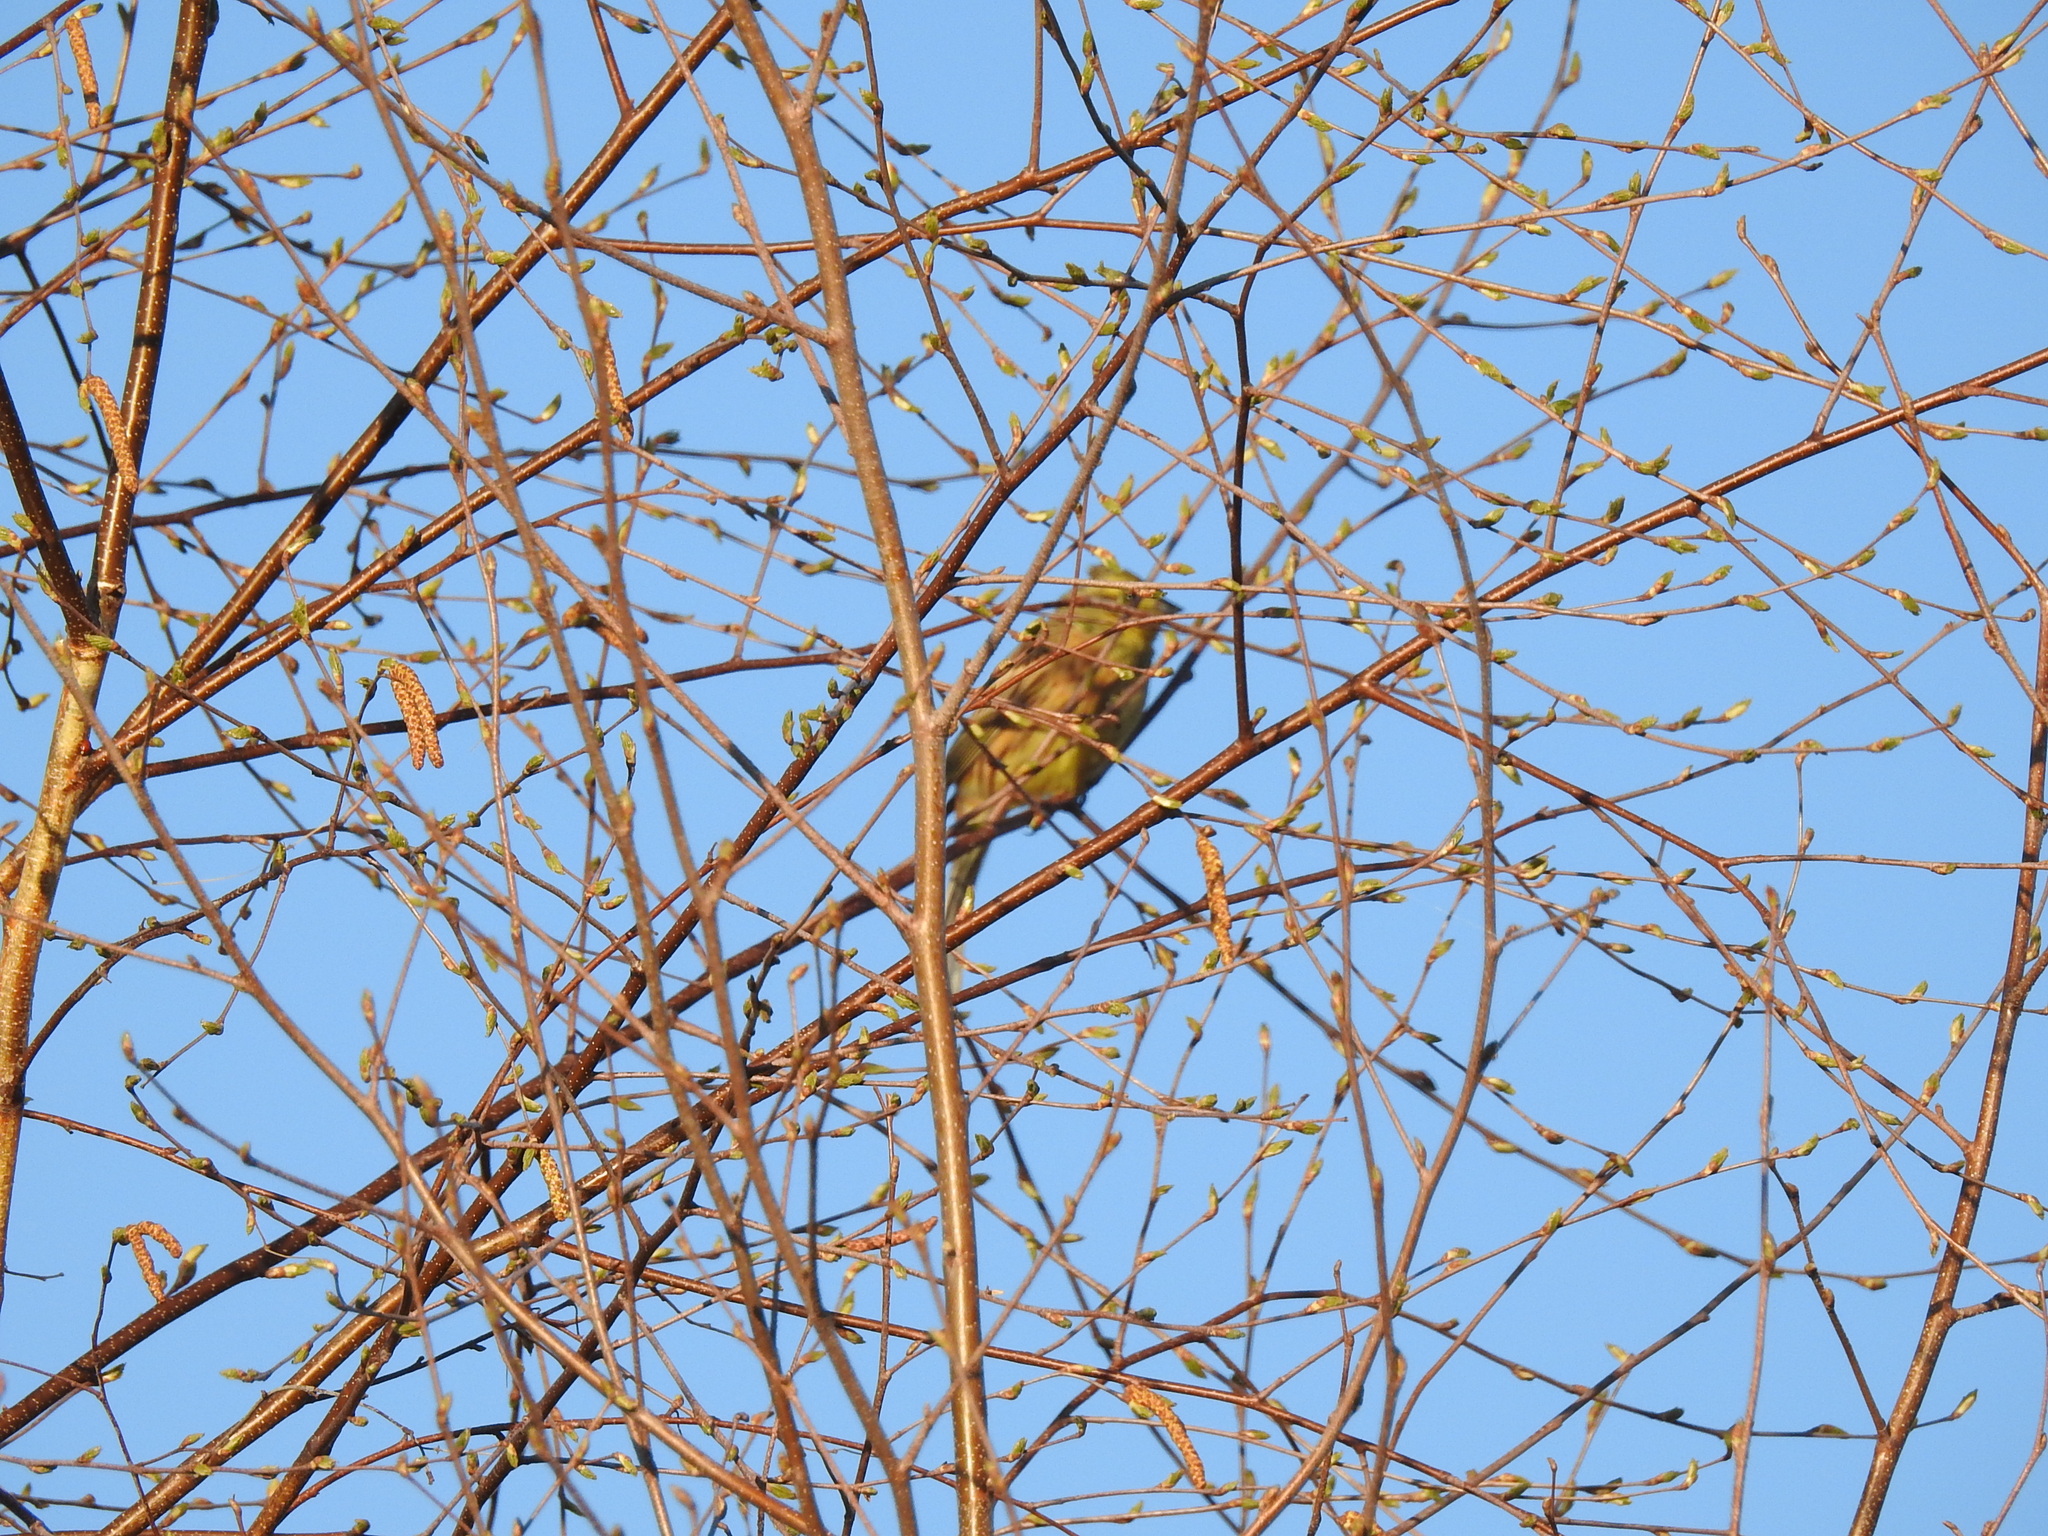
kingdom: Animalia
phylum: Chordata
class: Aves
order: Passeriformes
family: Emberizidae
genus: Emberiza
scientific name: Emberiza citrinella
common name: Yellowhammer
